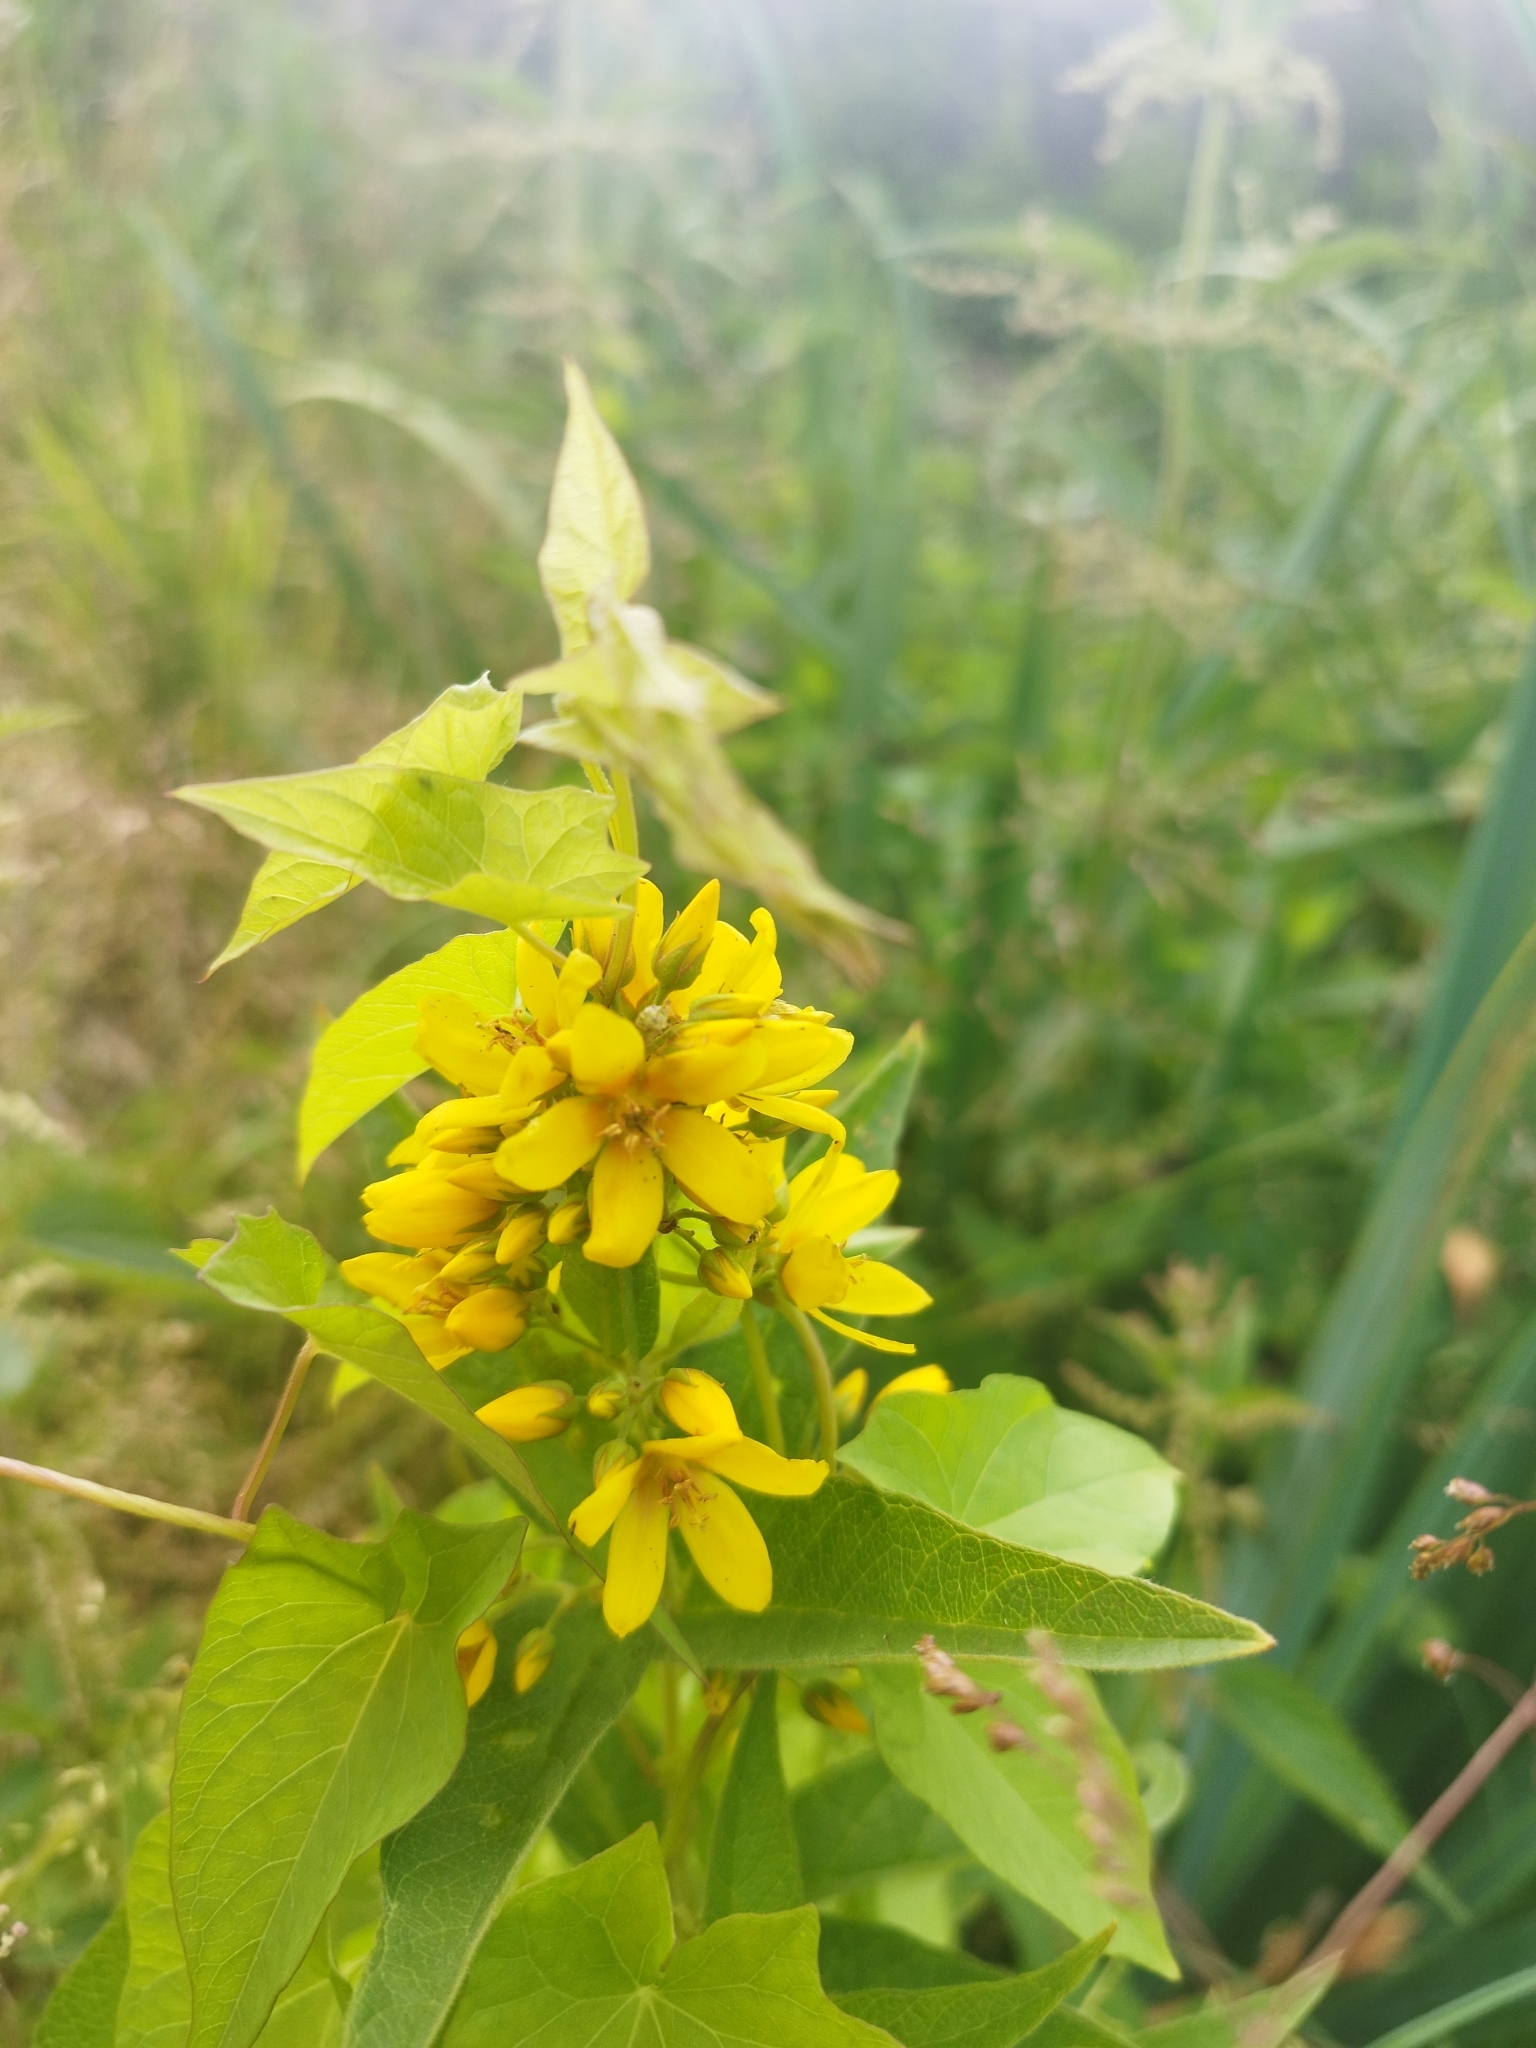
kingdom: Plantae
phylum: Tracheophyta
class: Magnoliopsida
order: Ericales
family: Primulaceae
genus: Lysimachia
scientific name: Lysimachia vulgaris
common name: Yellow loosestrife
